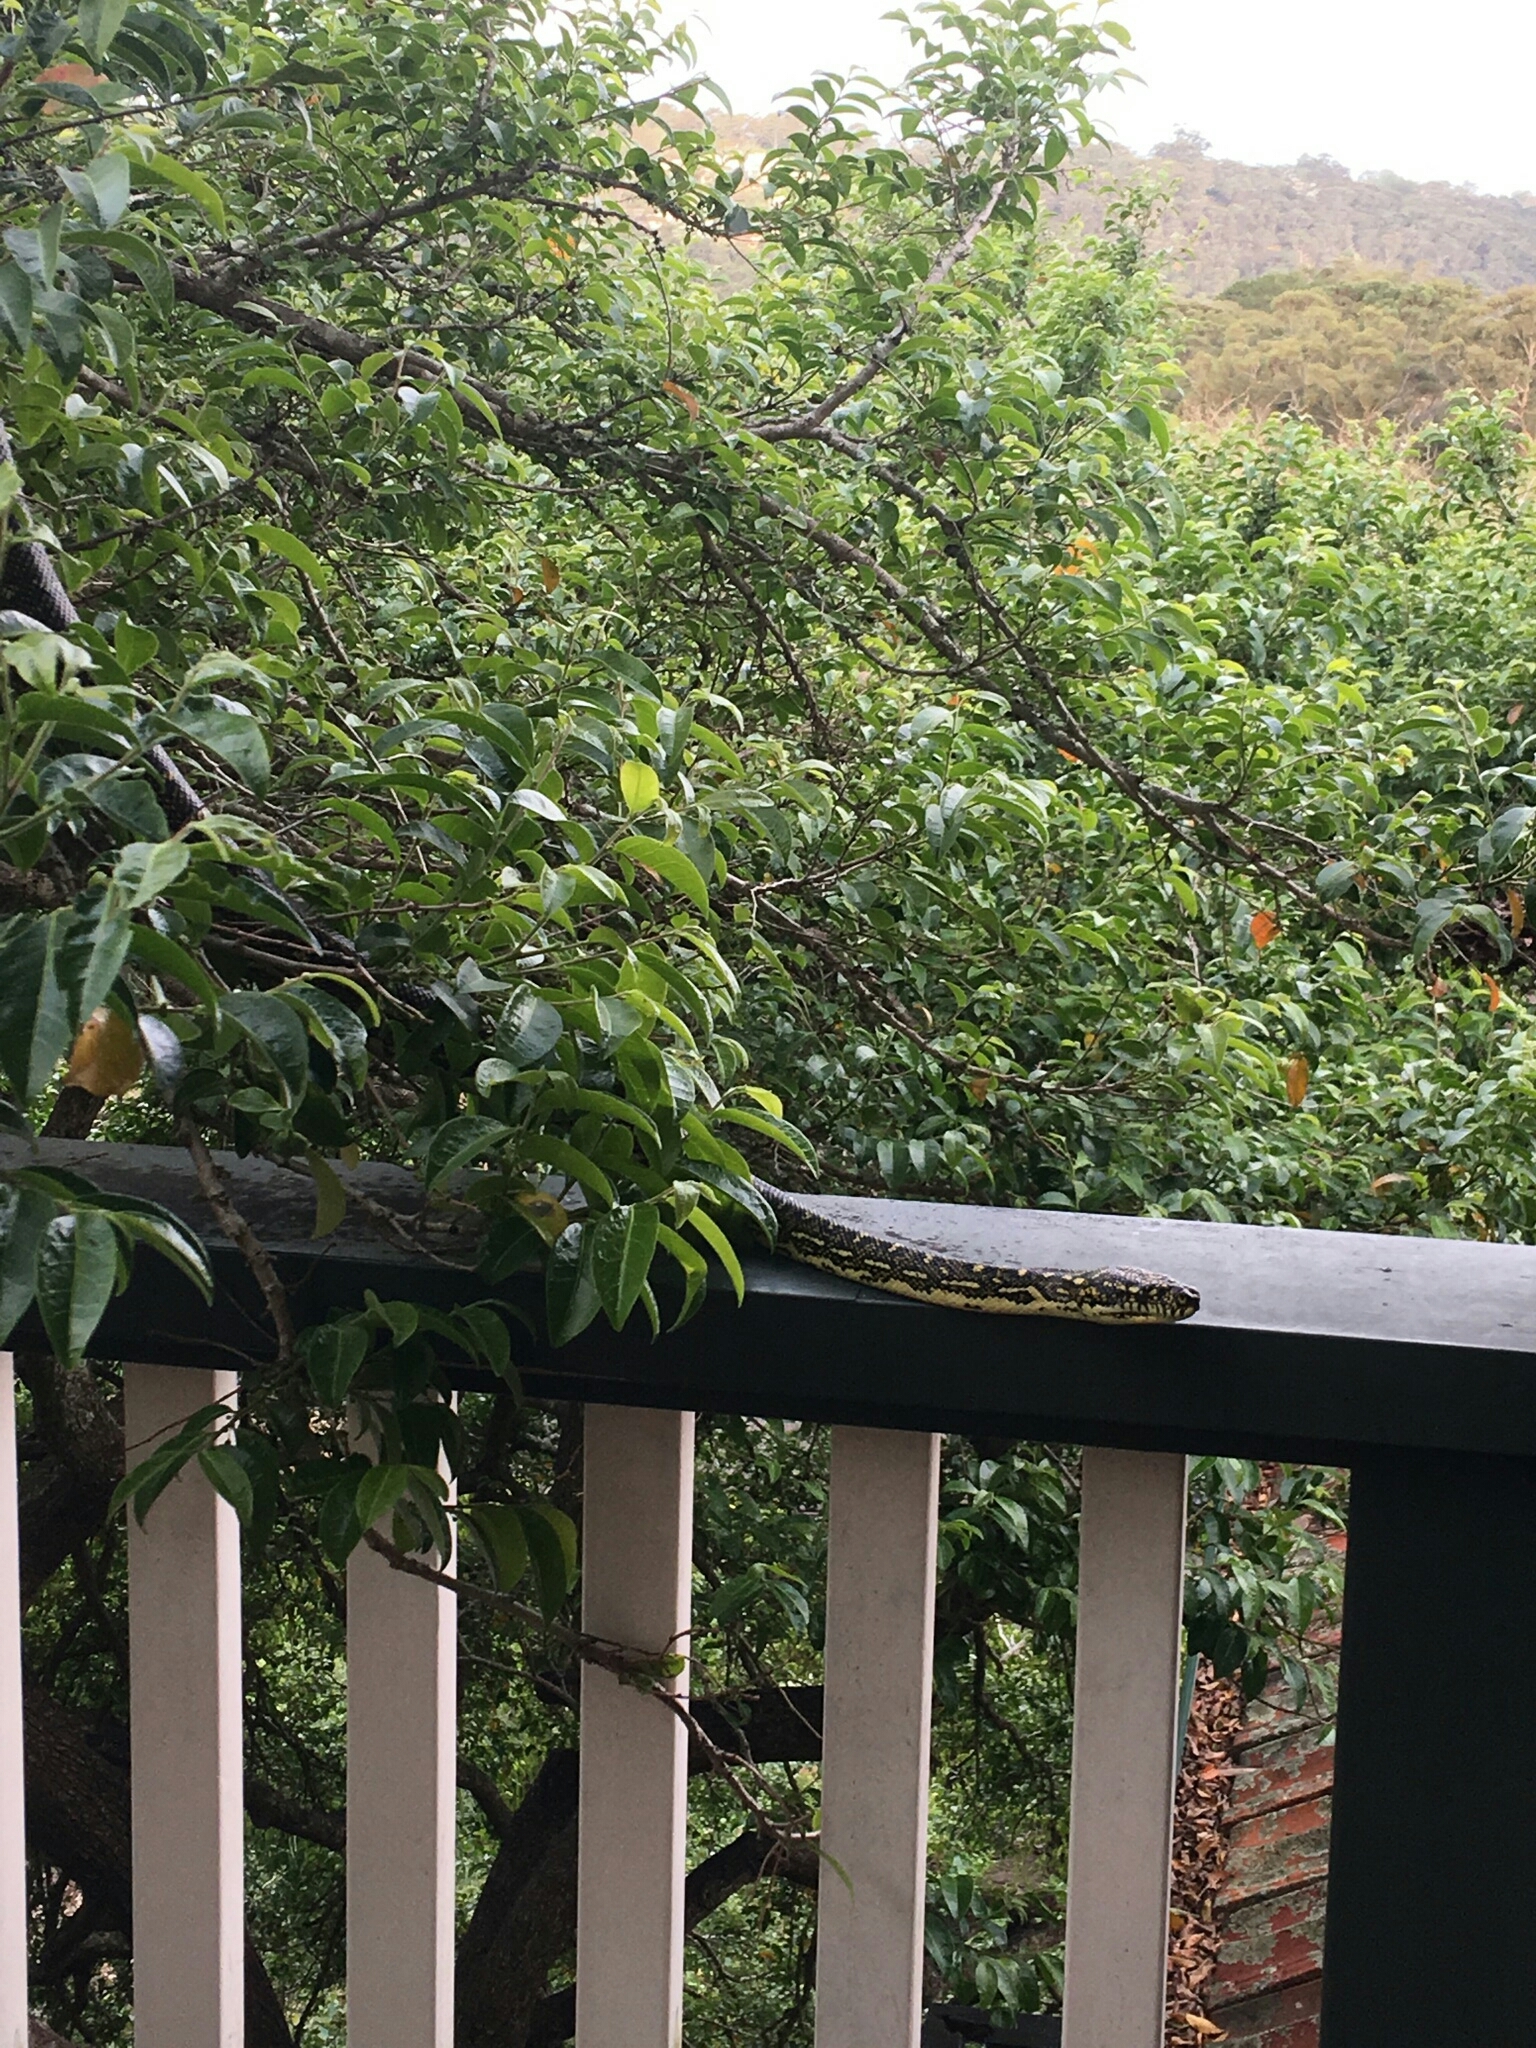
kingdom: Animalia
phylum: Chordata
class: Squamata
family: Pythonidae
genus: Morelia
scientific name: Morelia spilota
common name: Carpet python
